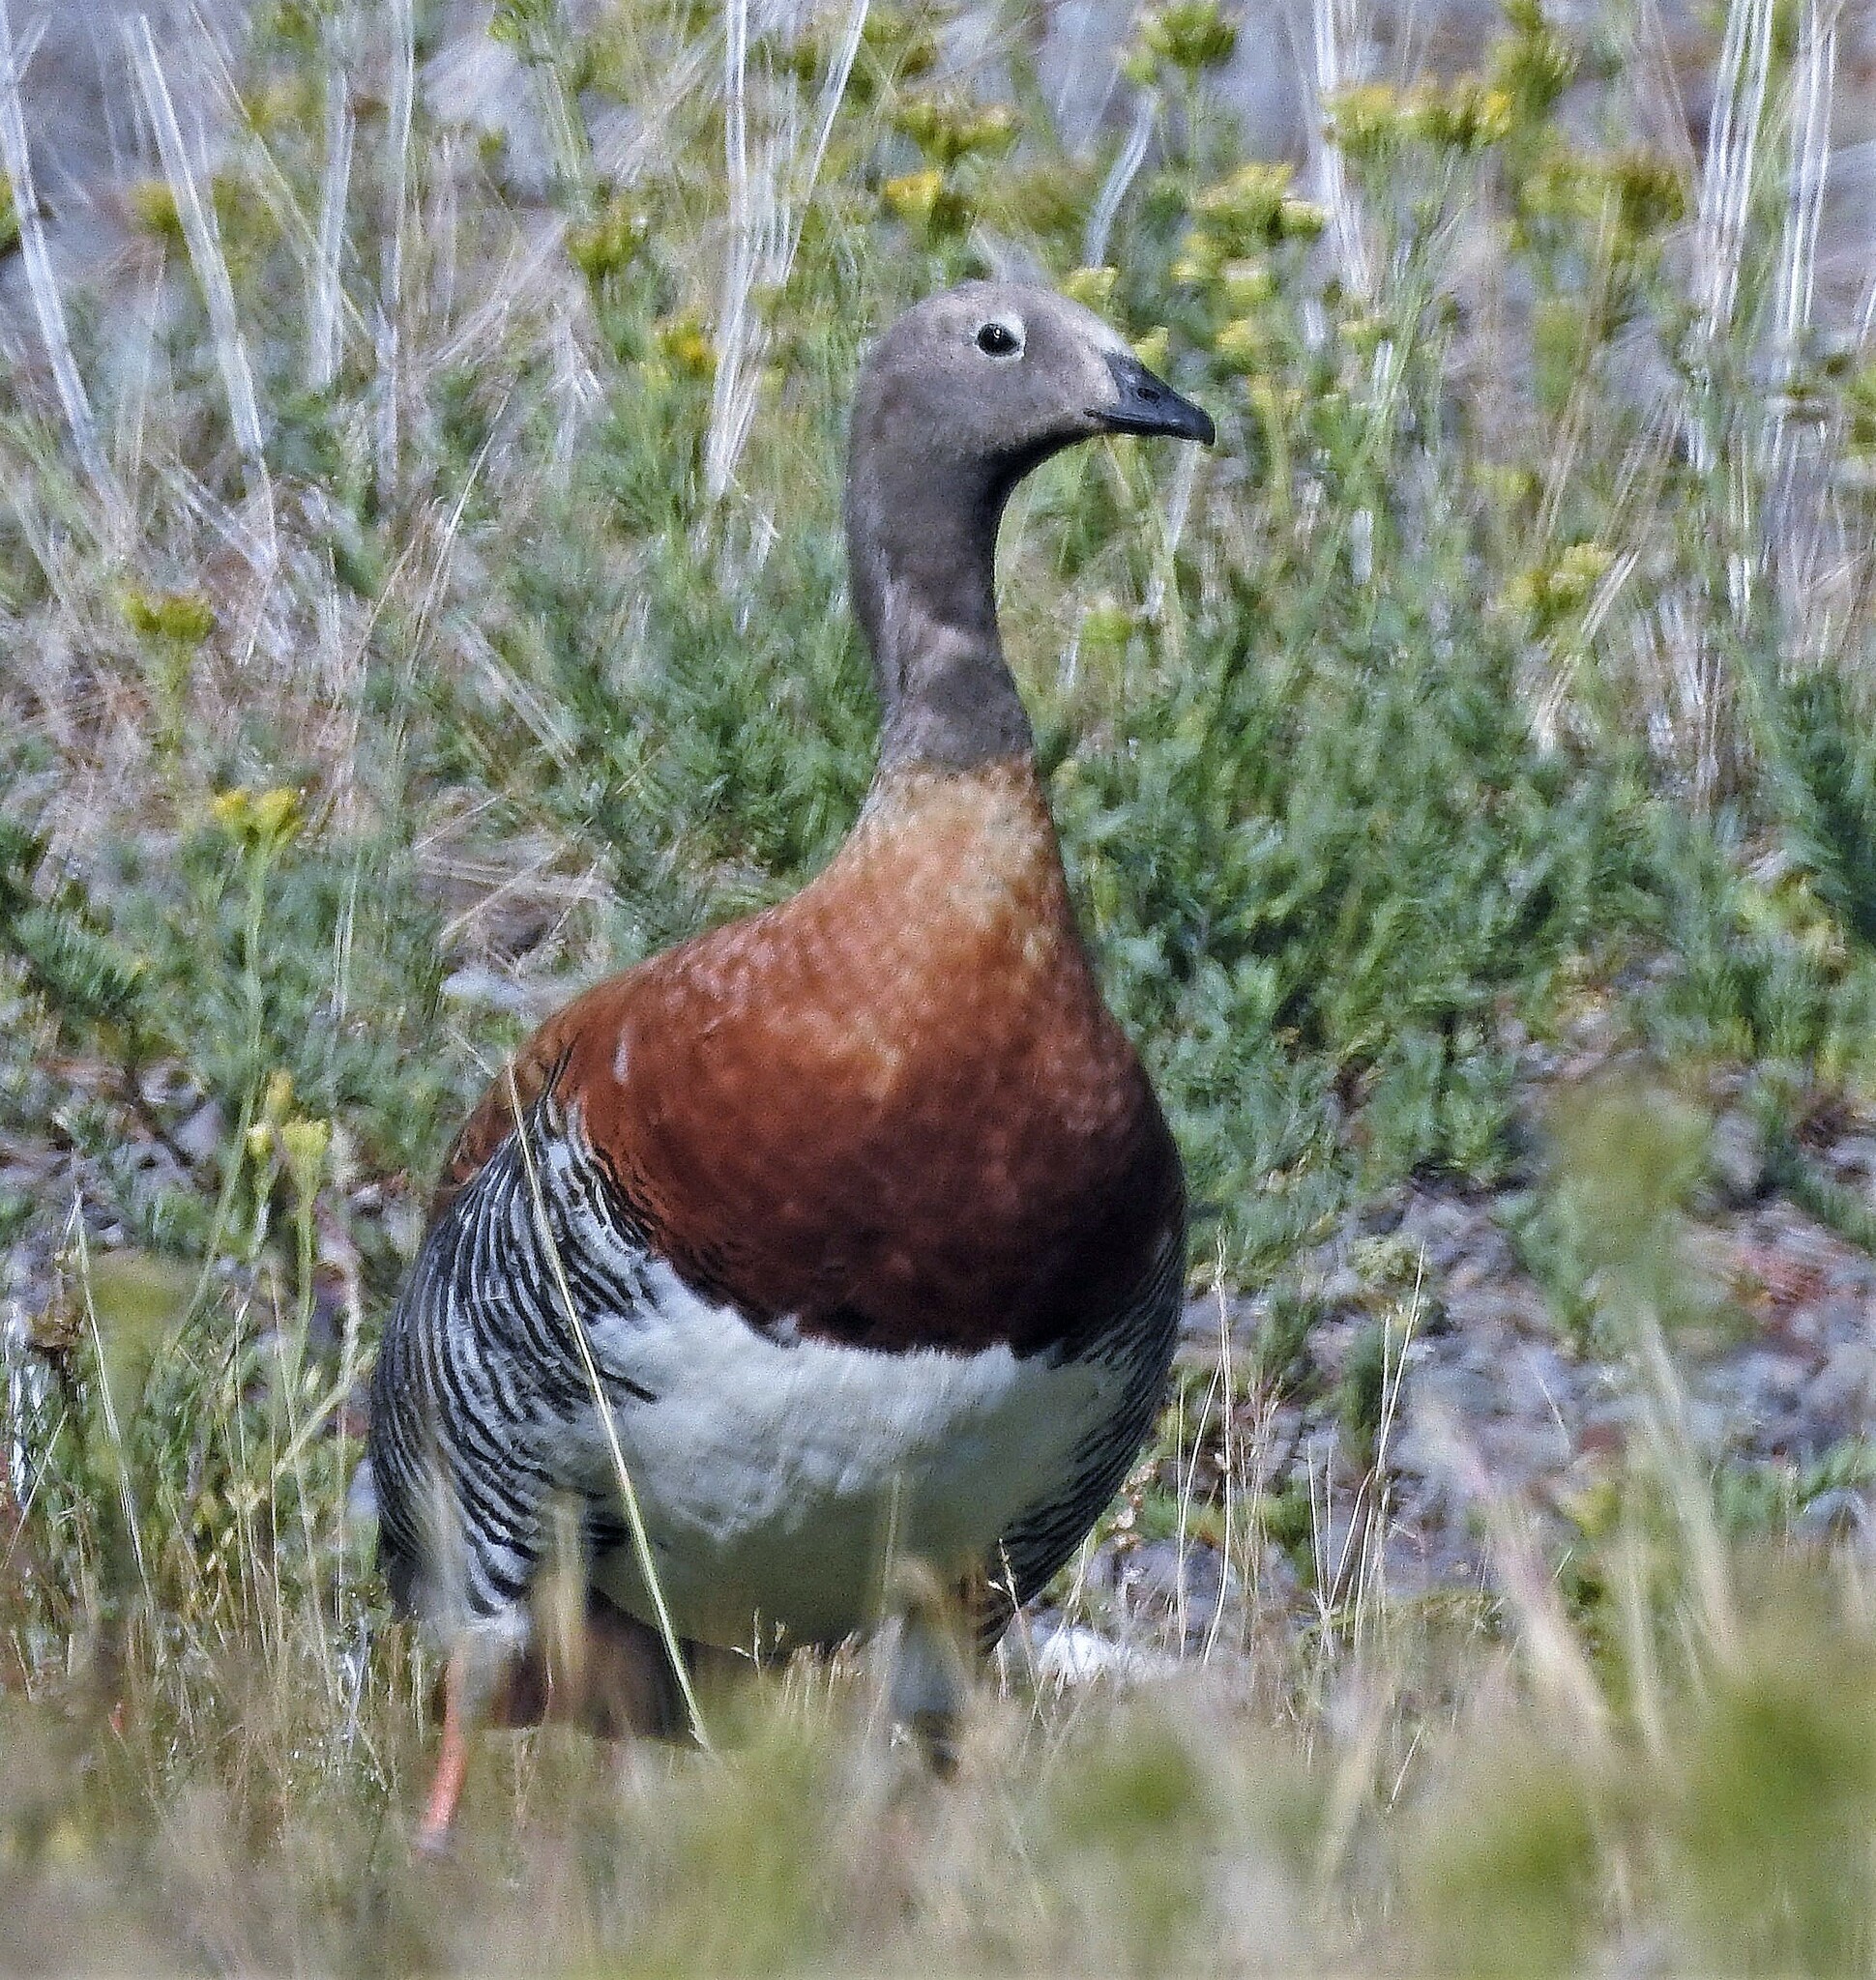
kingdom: Animalia
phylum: Chordata
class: Aves
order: Anseriformes
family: Anatidae
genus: Chloephaga
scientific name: Chloephaga poliocephala
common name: Ashy-headed goose
